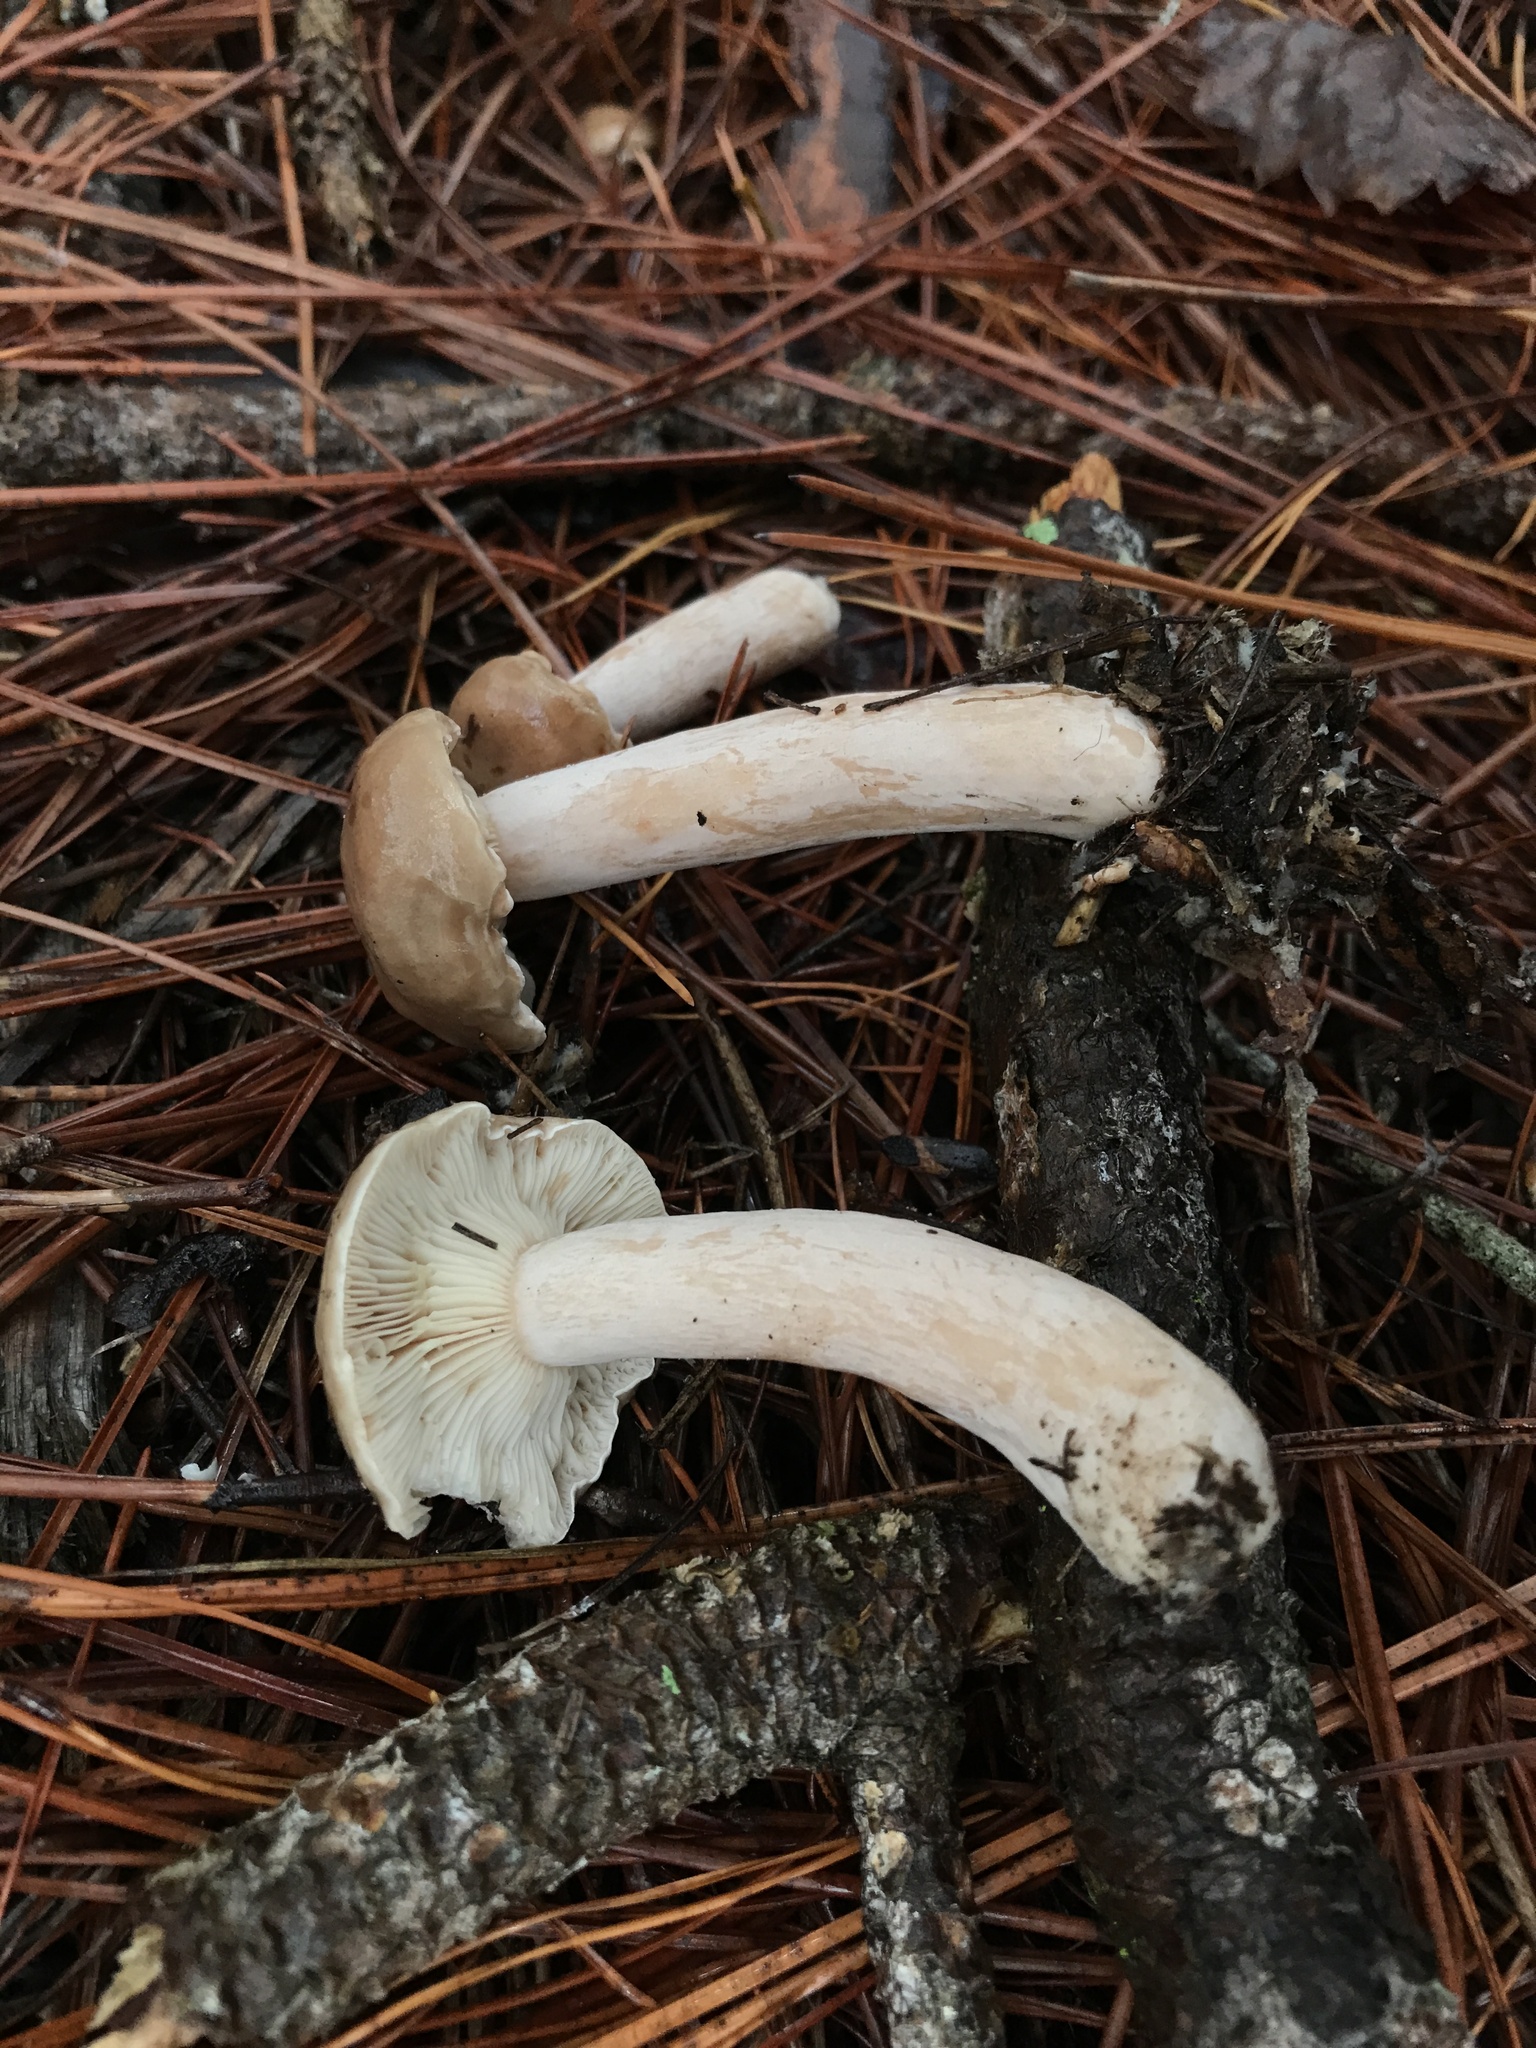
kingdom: Fungi
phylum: Basidiomycota
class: Agaricomycetes
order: Russulales
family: Russulaceae
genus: Lactarius
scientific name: Lactarius imperceptus
